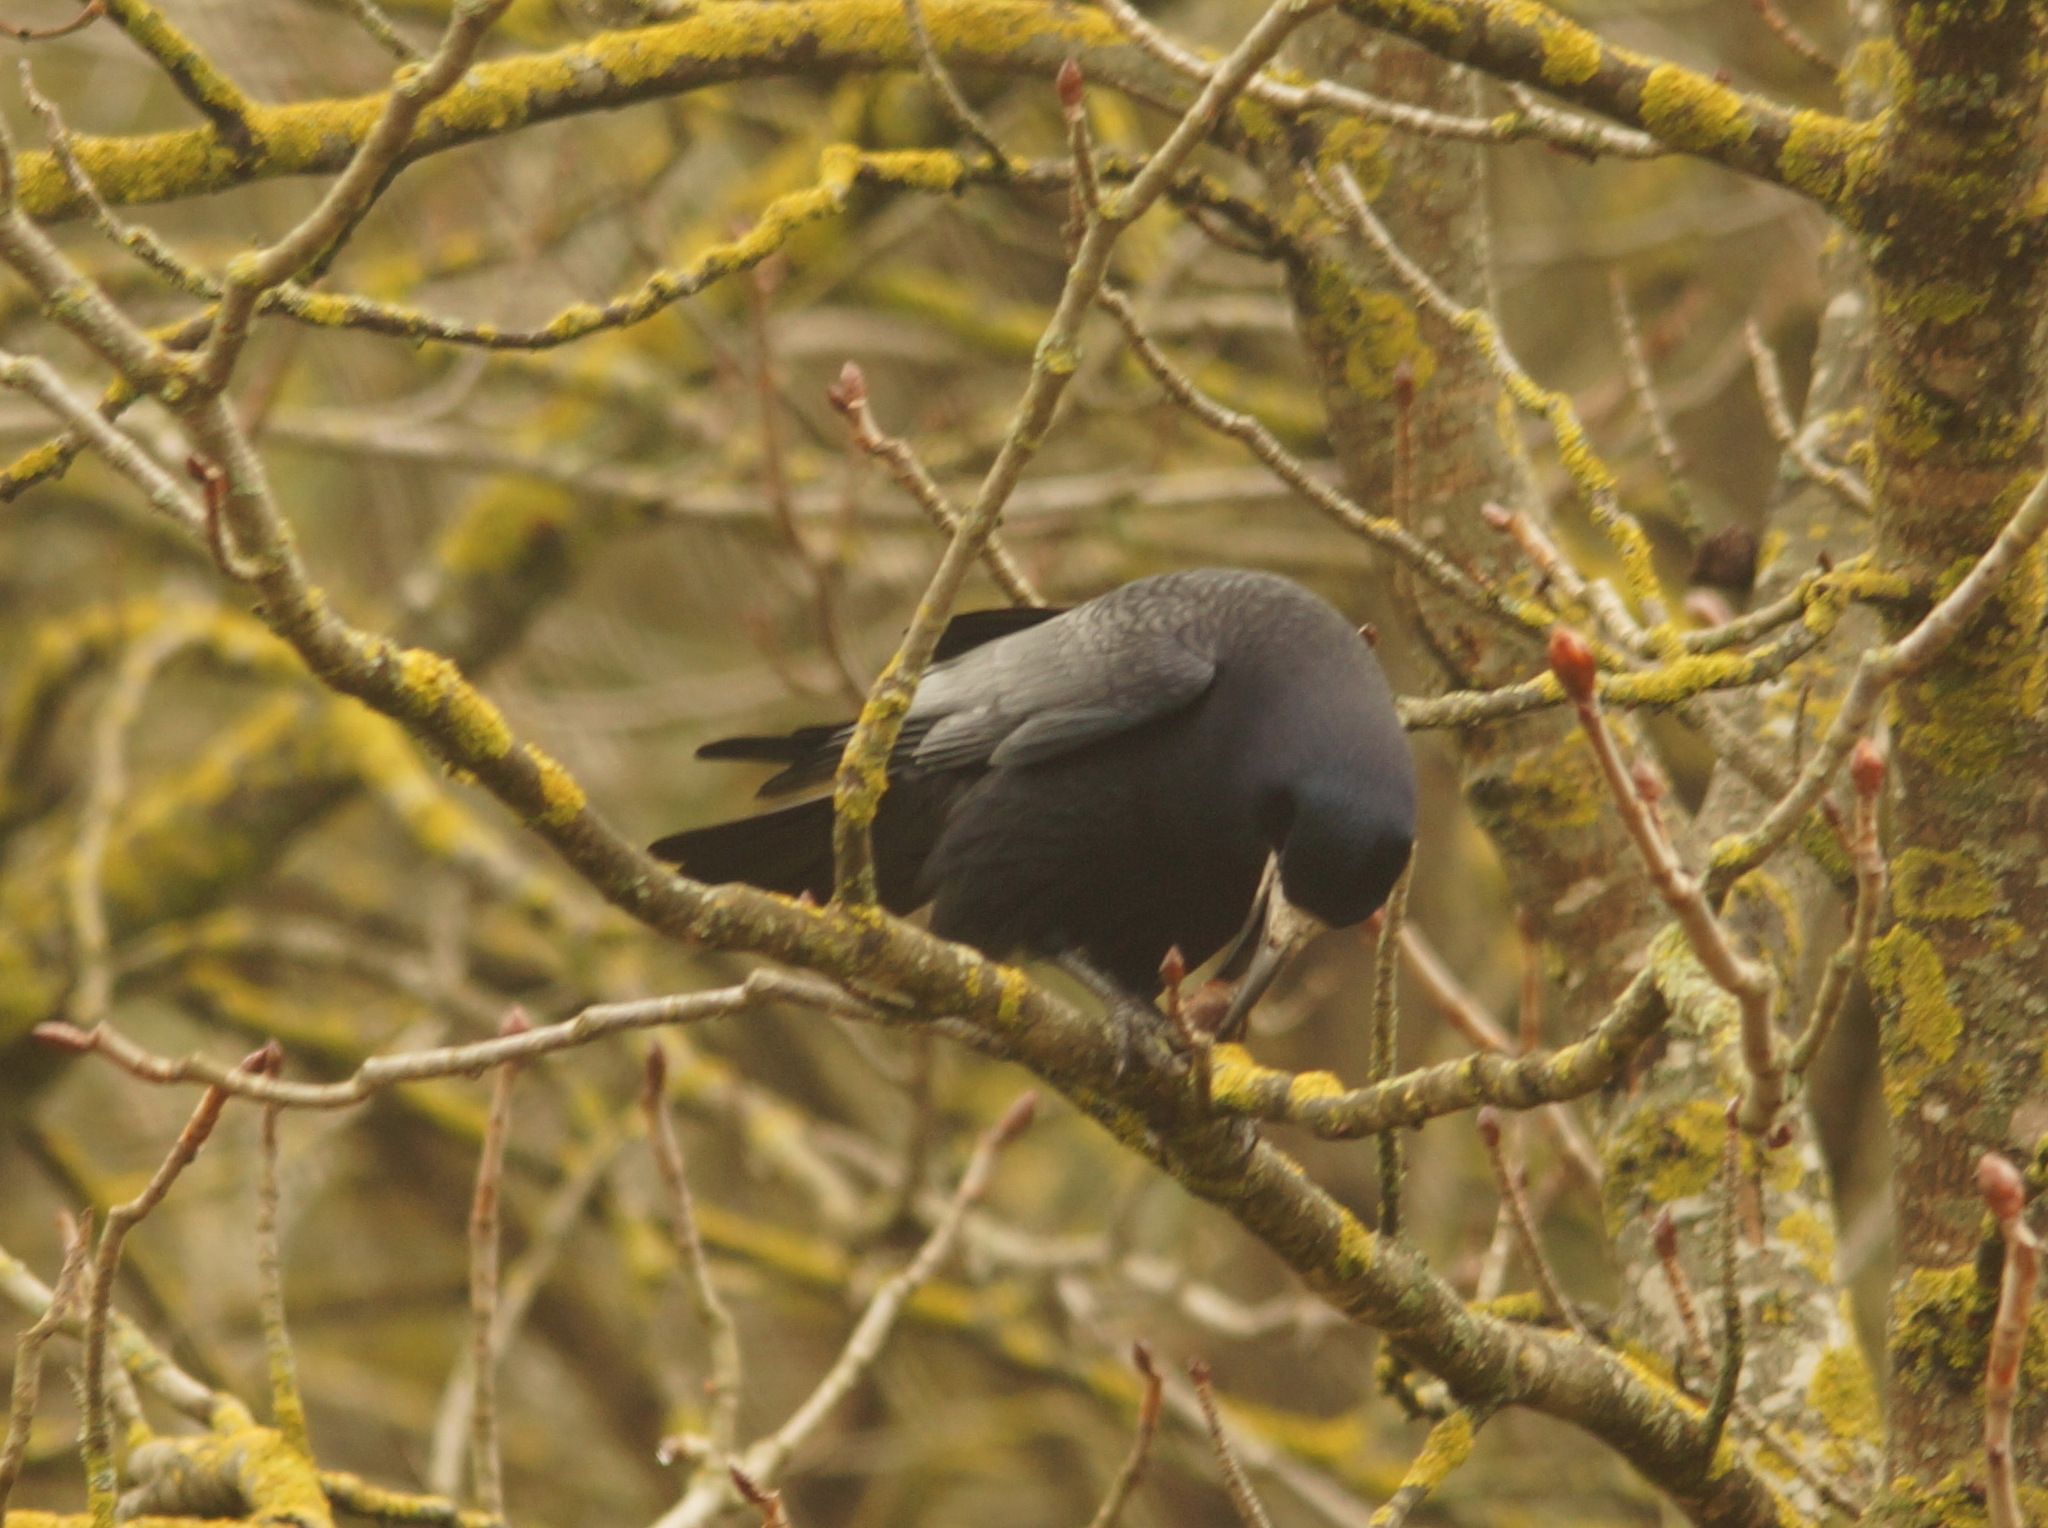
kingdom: Animalia
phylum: Chordata
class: Aves
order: Passeriformes
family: Corvidae
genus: Corvus
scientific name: Corvus frugilegus
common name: Rook
